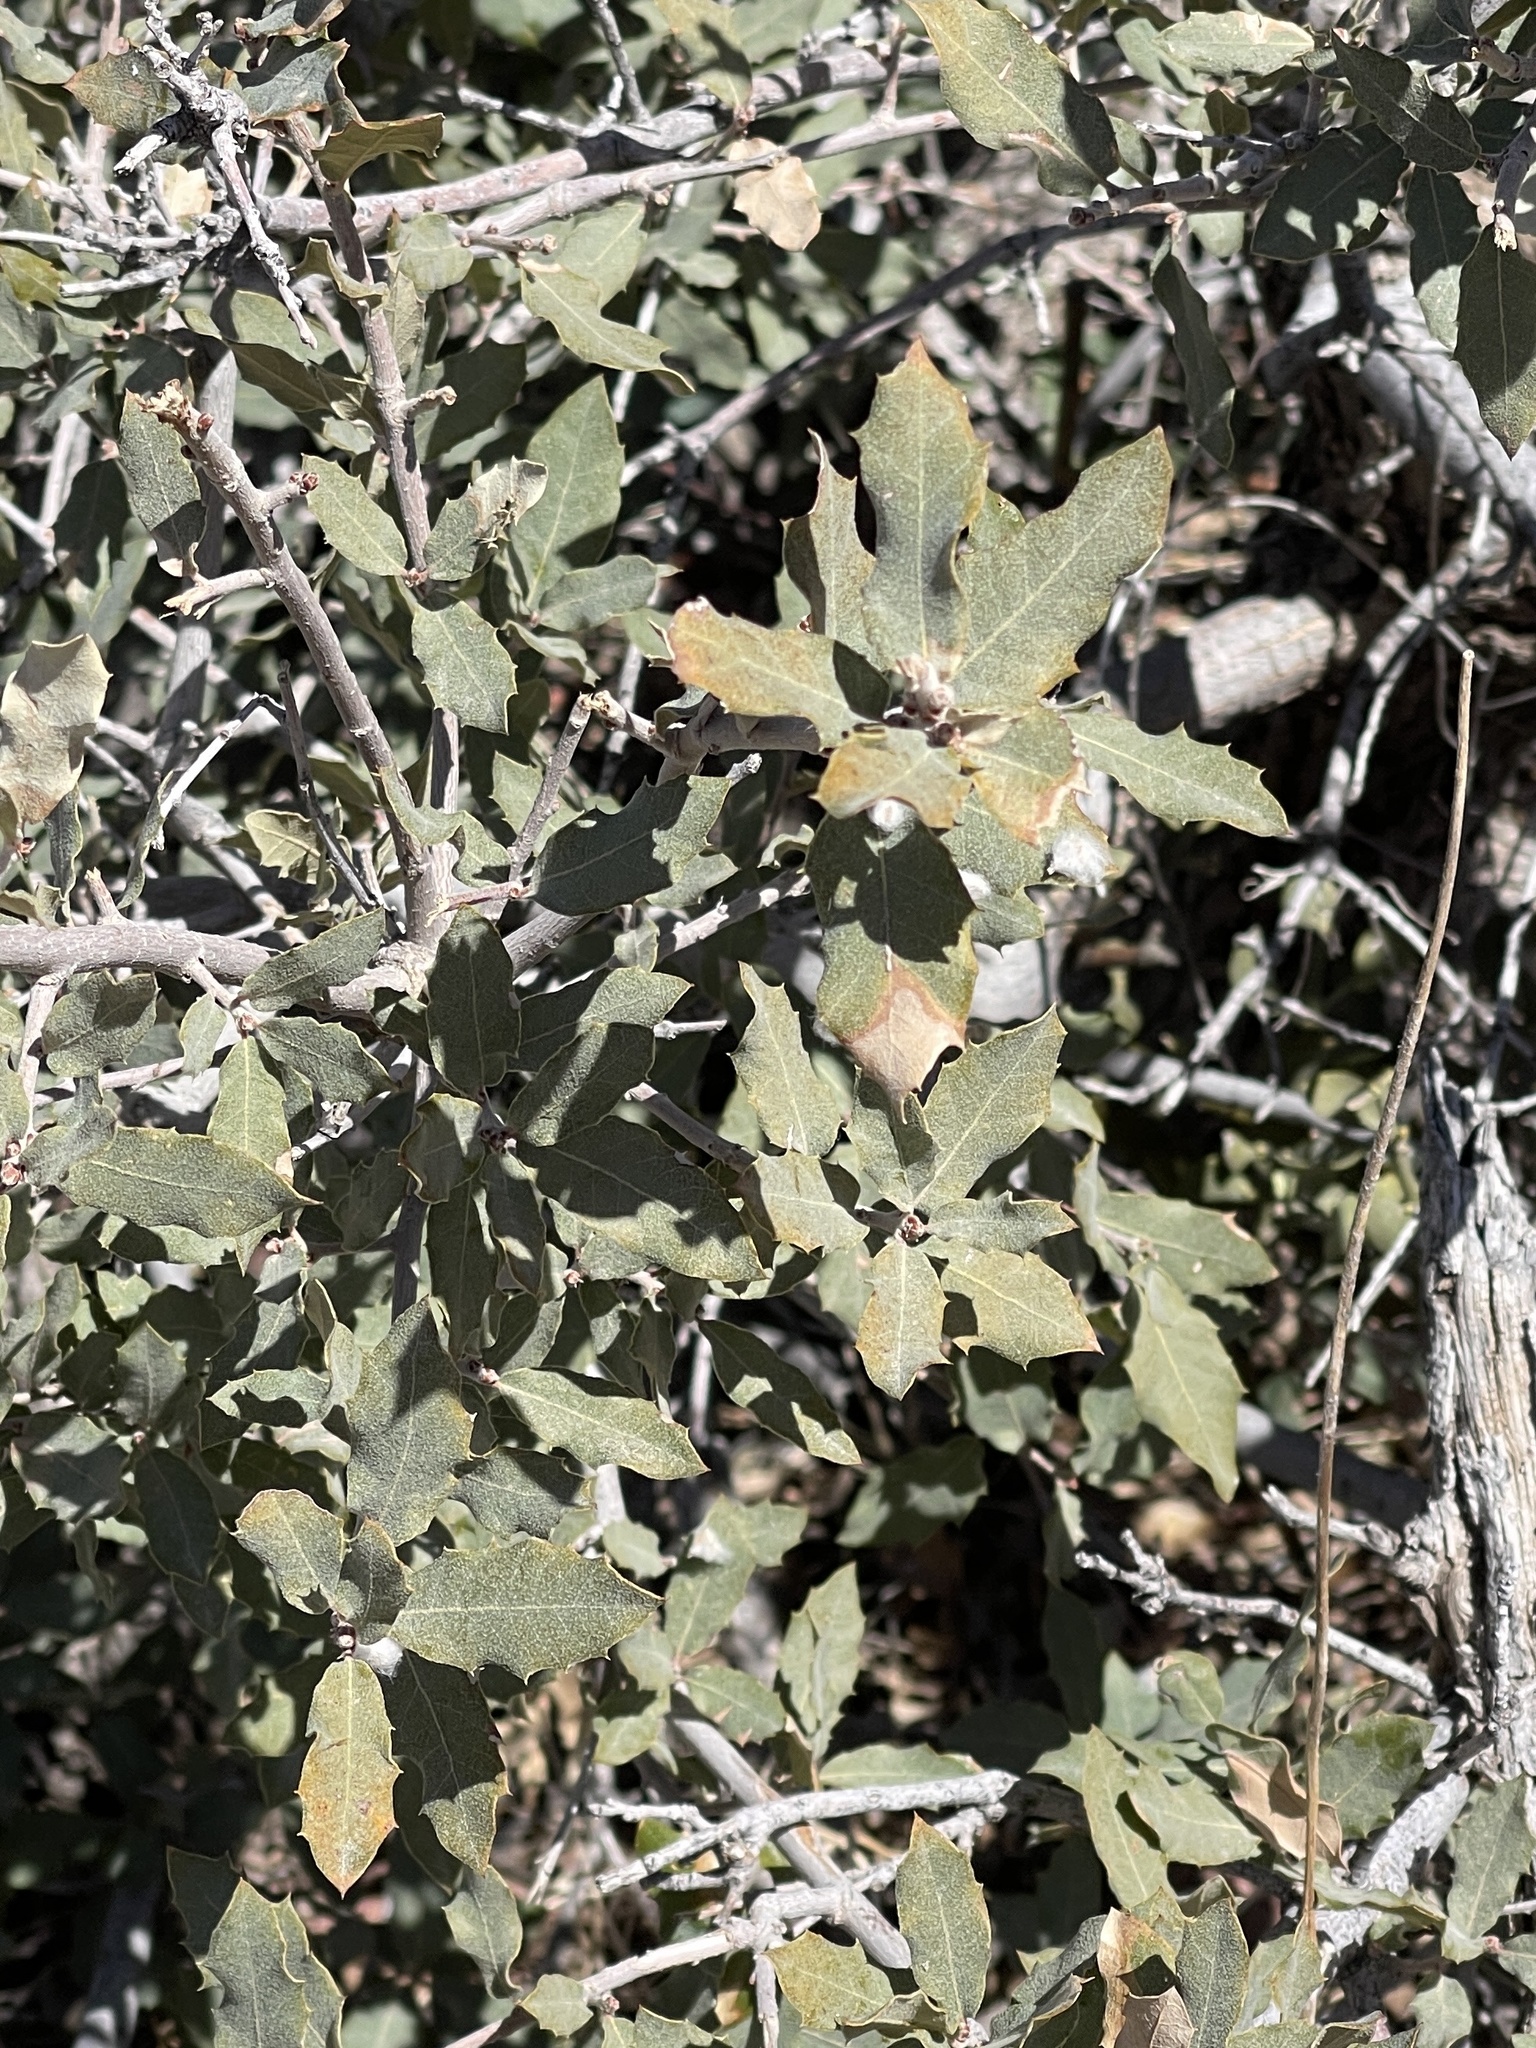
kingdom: Plantae
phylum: Tracheophyta
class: Magnoliopsida
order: Fagales
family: Fagaceae
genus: Quercus
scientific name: Quercus turbinella
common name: Sonoran scrub oak
